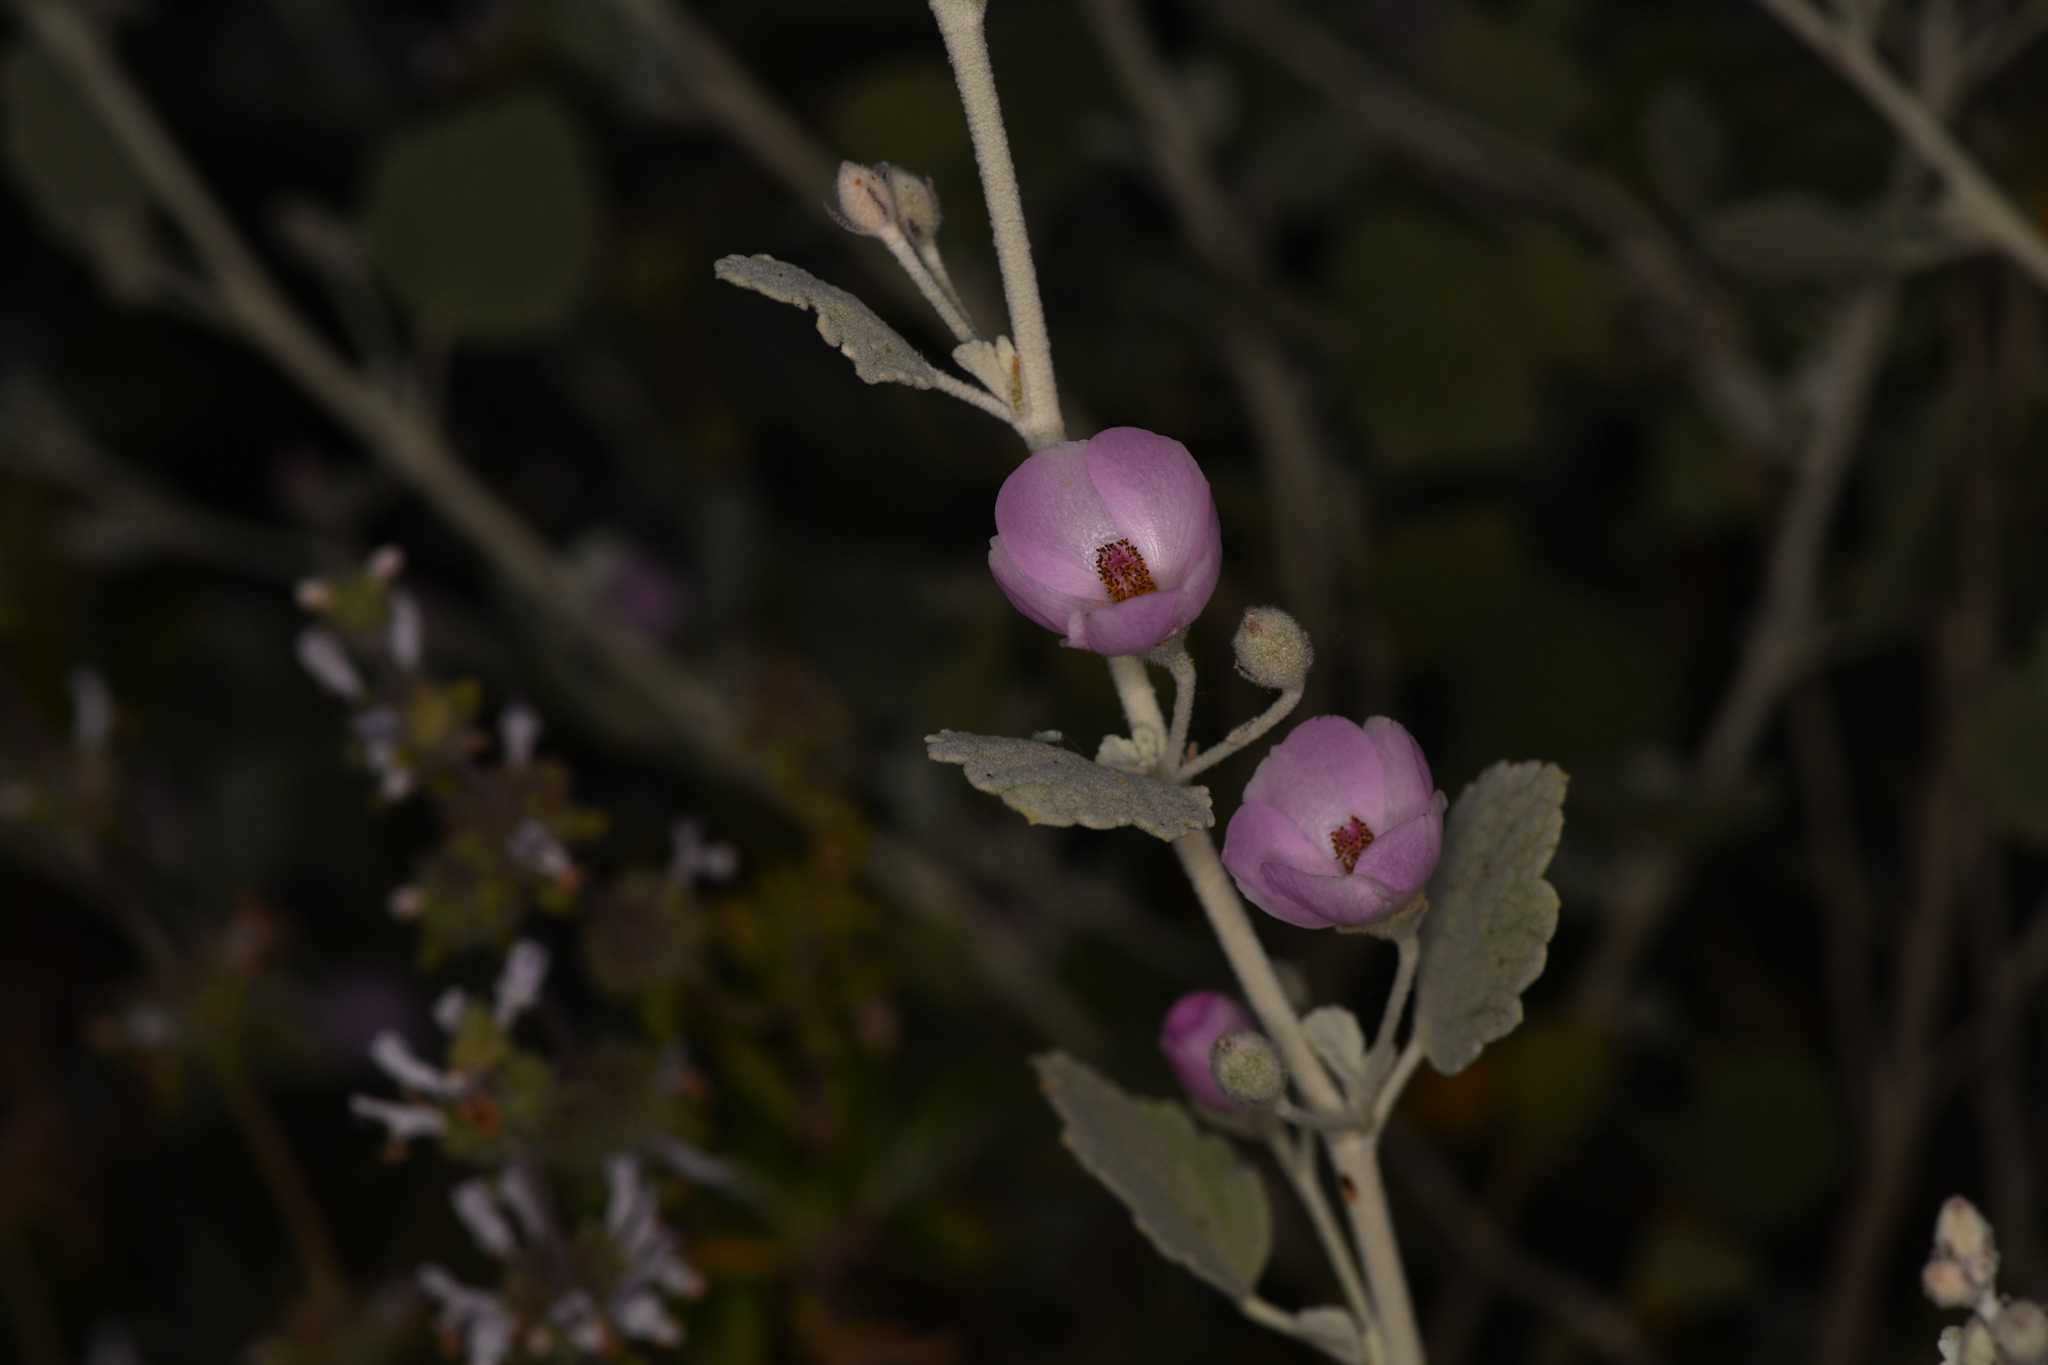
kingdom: Plantae
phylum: Tracheophyta
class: Magnoliopsida
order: Malvales
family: Malvaceae
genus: Malacothamnus
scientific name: Malacothamnus jonesii
